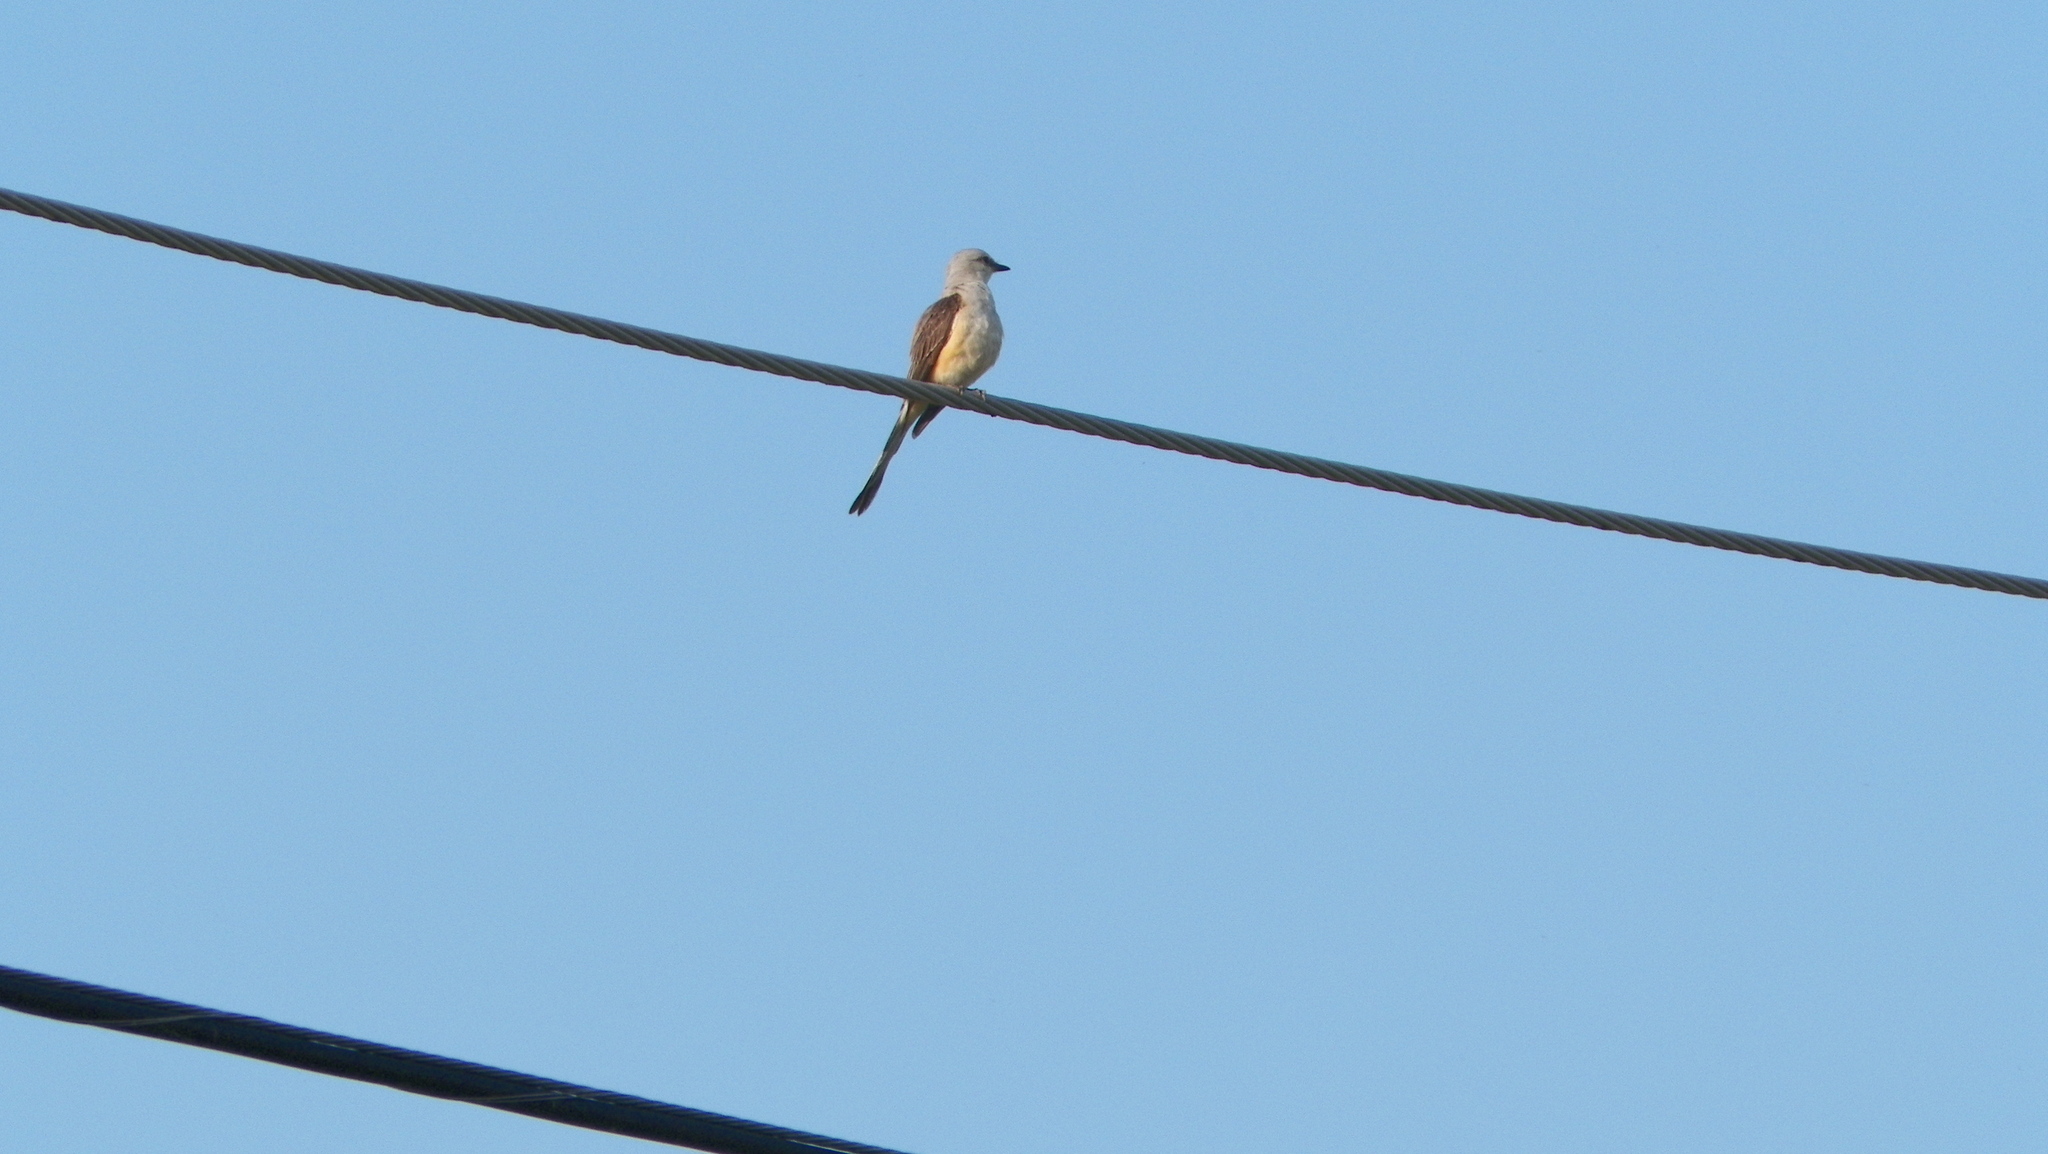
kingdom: Animalia
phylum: Chordata
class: Aves
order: Passeriformes
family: Tyrannidae
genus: Tyrannus
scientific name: Tyrannus forficatus
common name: Scissor-tailed flycatcher
